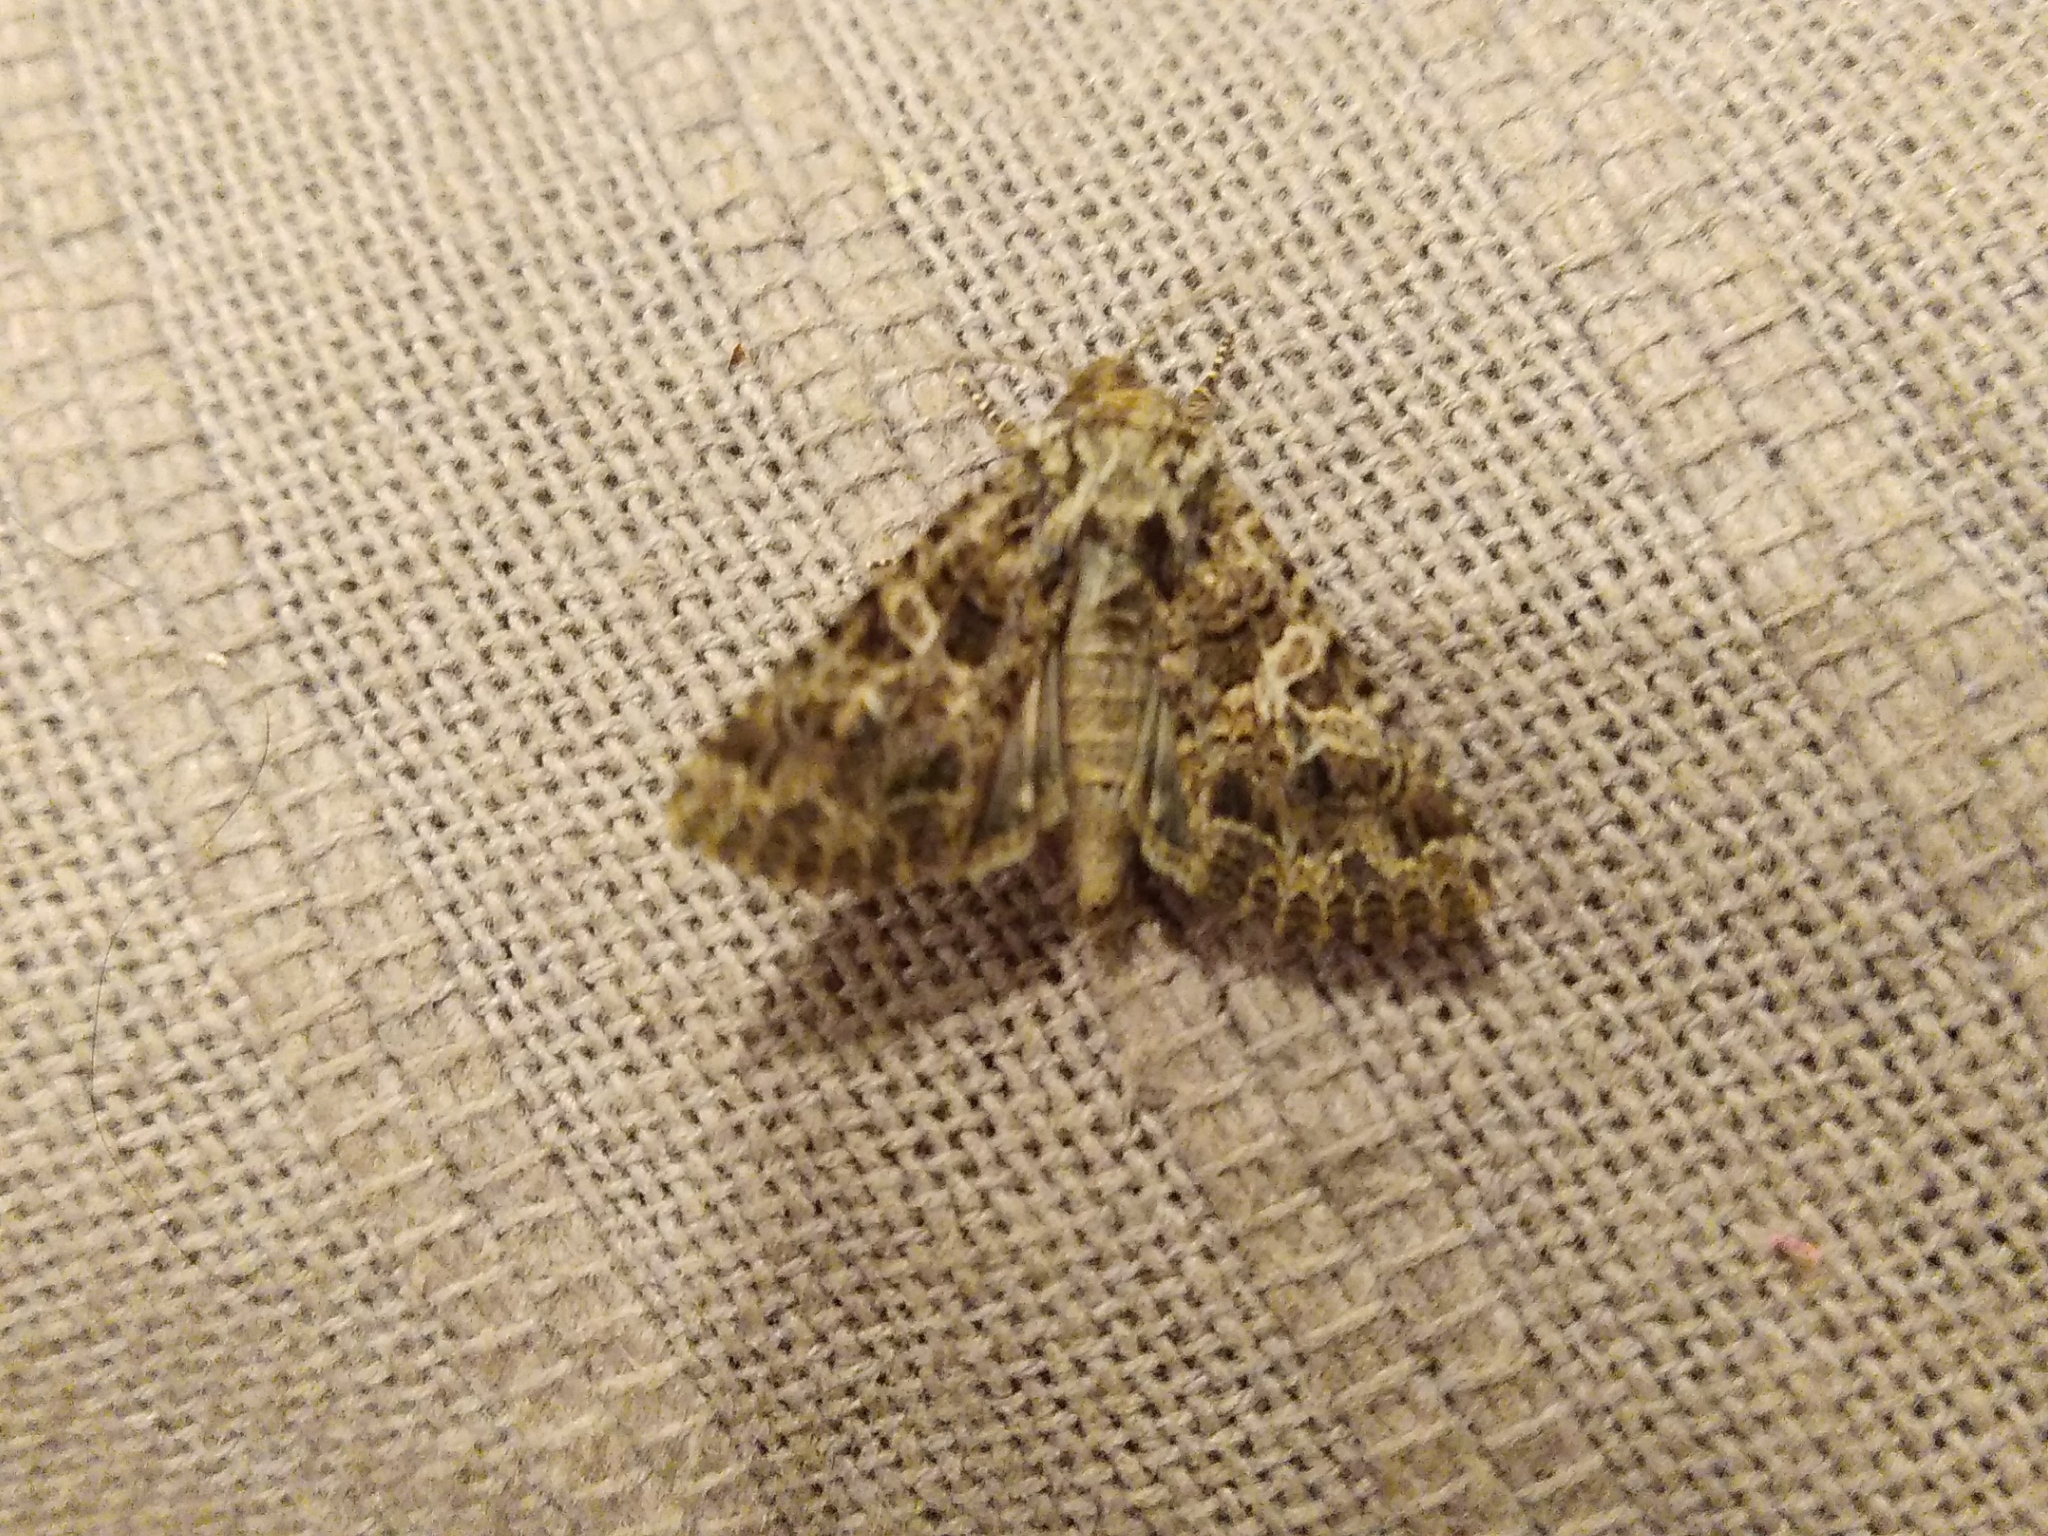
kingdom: Animalia
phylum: Arthropoda
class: Insecta
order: Lepidoptera
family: Noctuidae
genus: Hadena
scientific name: Hadena bicruris
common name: Lychnis
